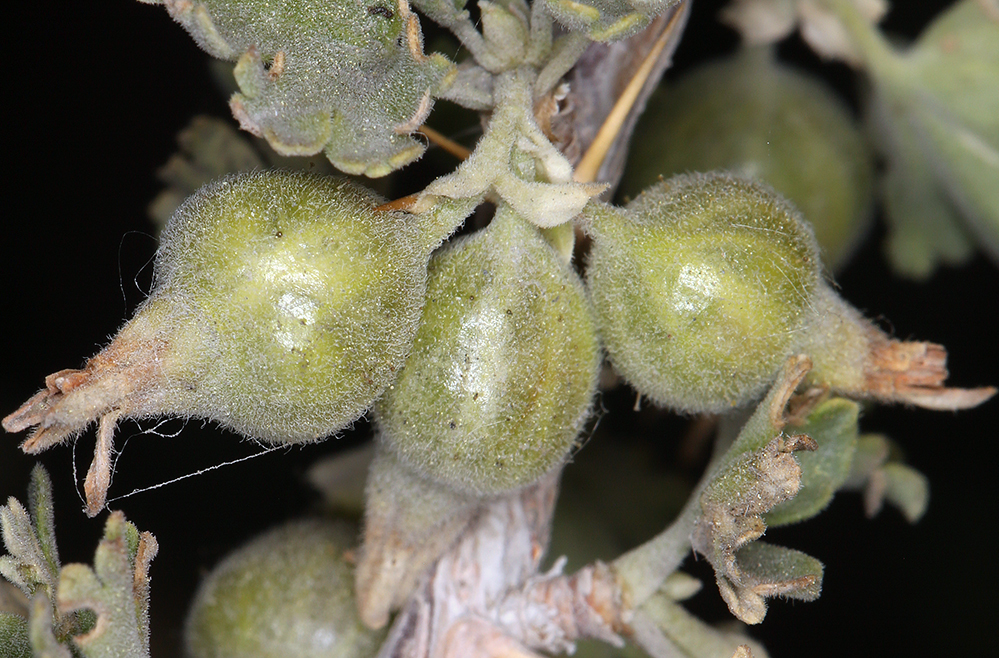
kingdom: Plantae
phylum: Tracheophyta
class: Magnoliopsida
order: Saxifragales
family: Grossulariaceae
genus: Ribes
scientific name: Ribes velutinum
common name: Desert gooseberry
